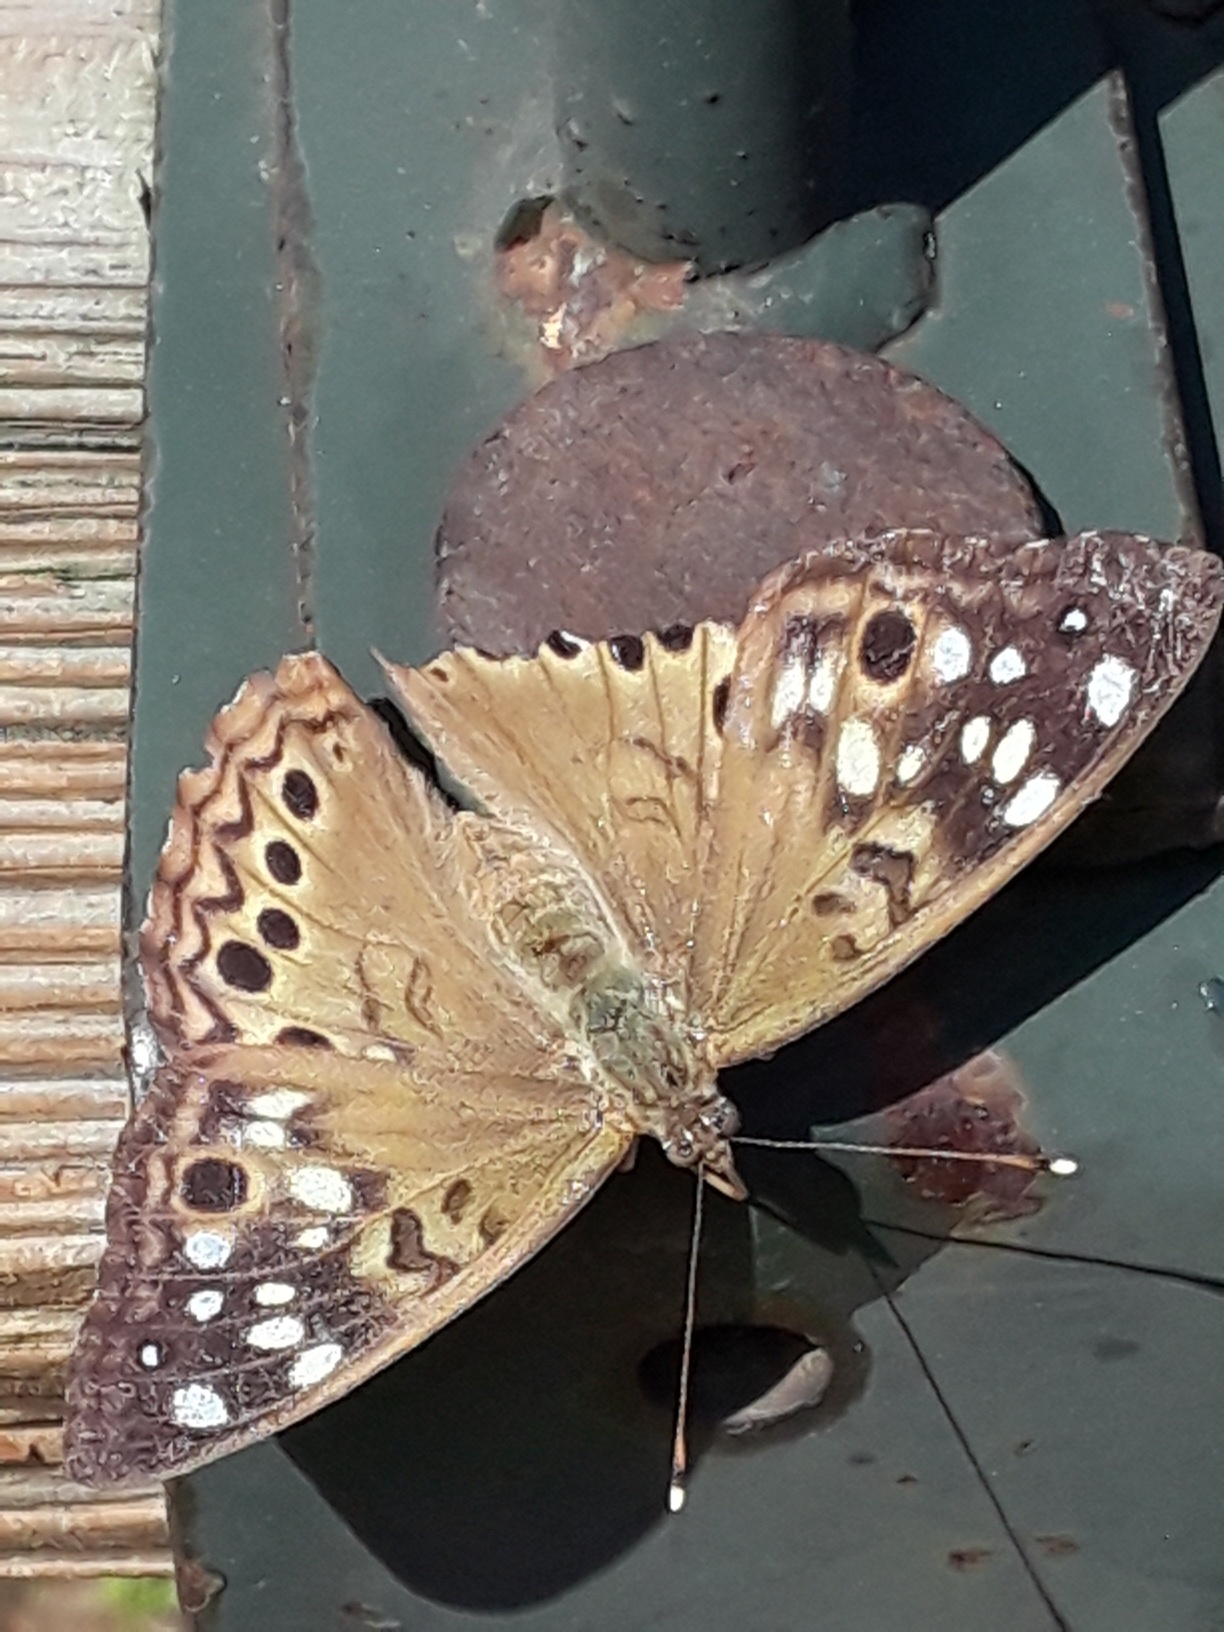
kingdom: Animalia
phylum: Arthropoda
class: Insecta
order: Lepidoptera
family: Nymphalidae
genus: Asterocampa
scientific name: Asterocampa celtis
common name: Hackberry emperor
